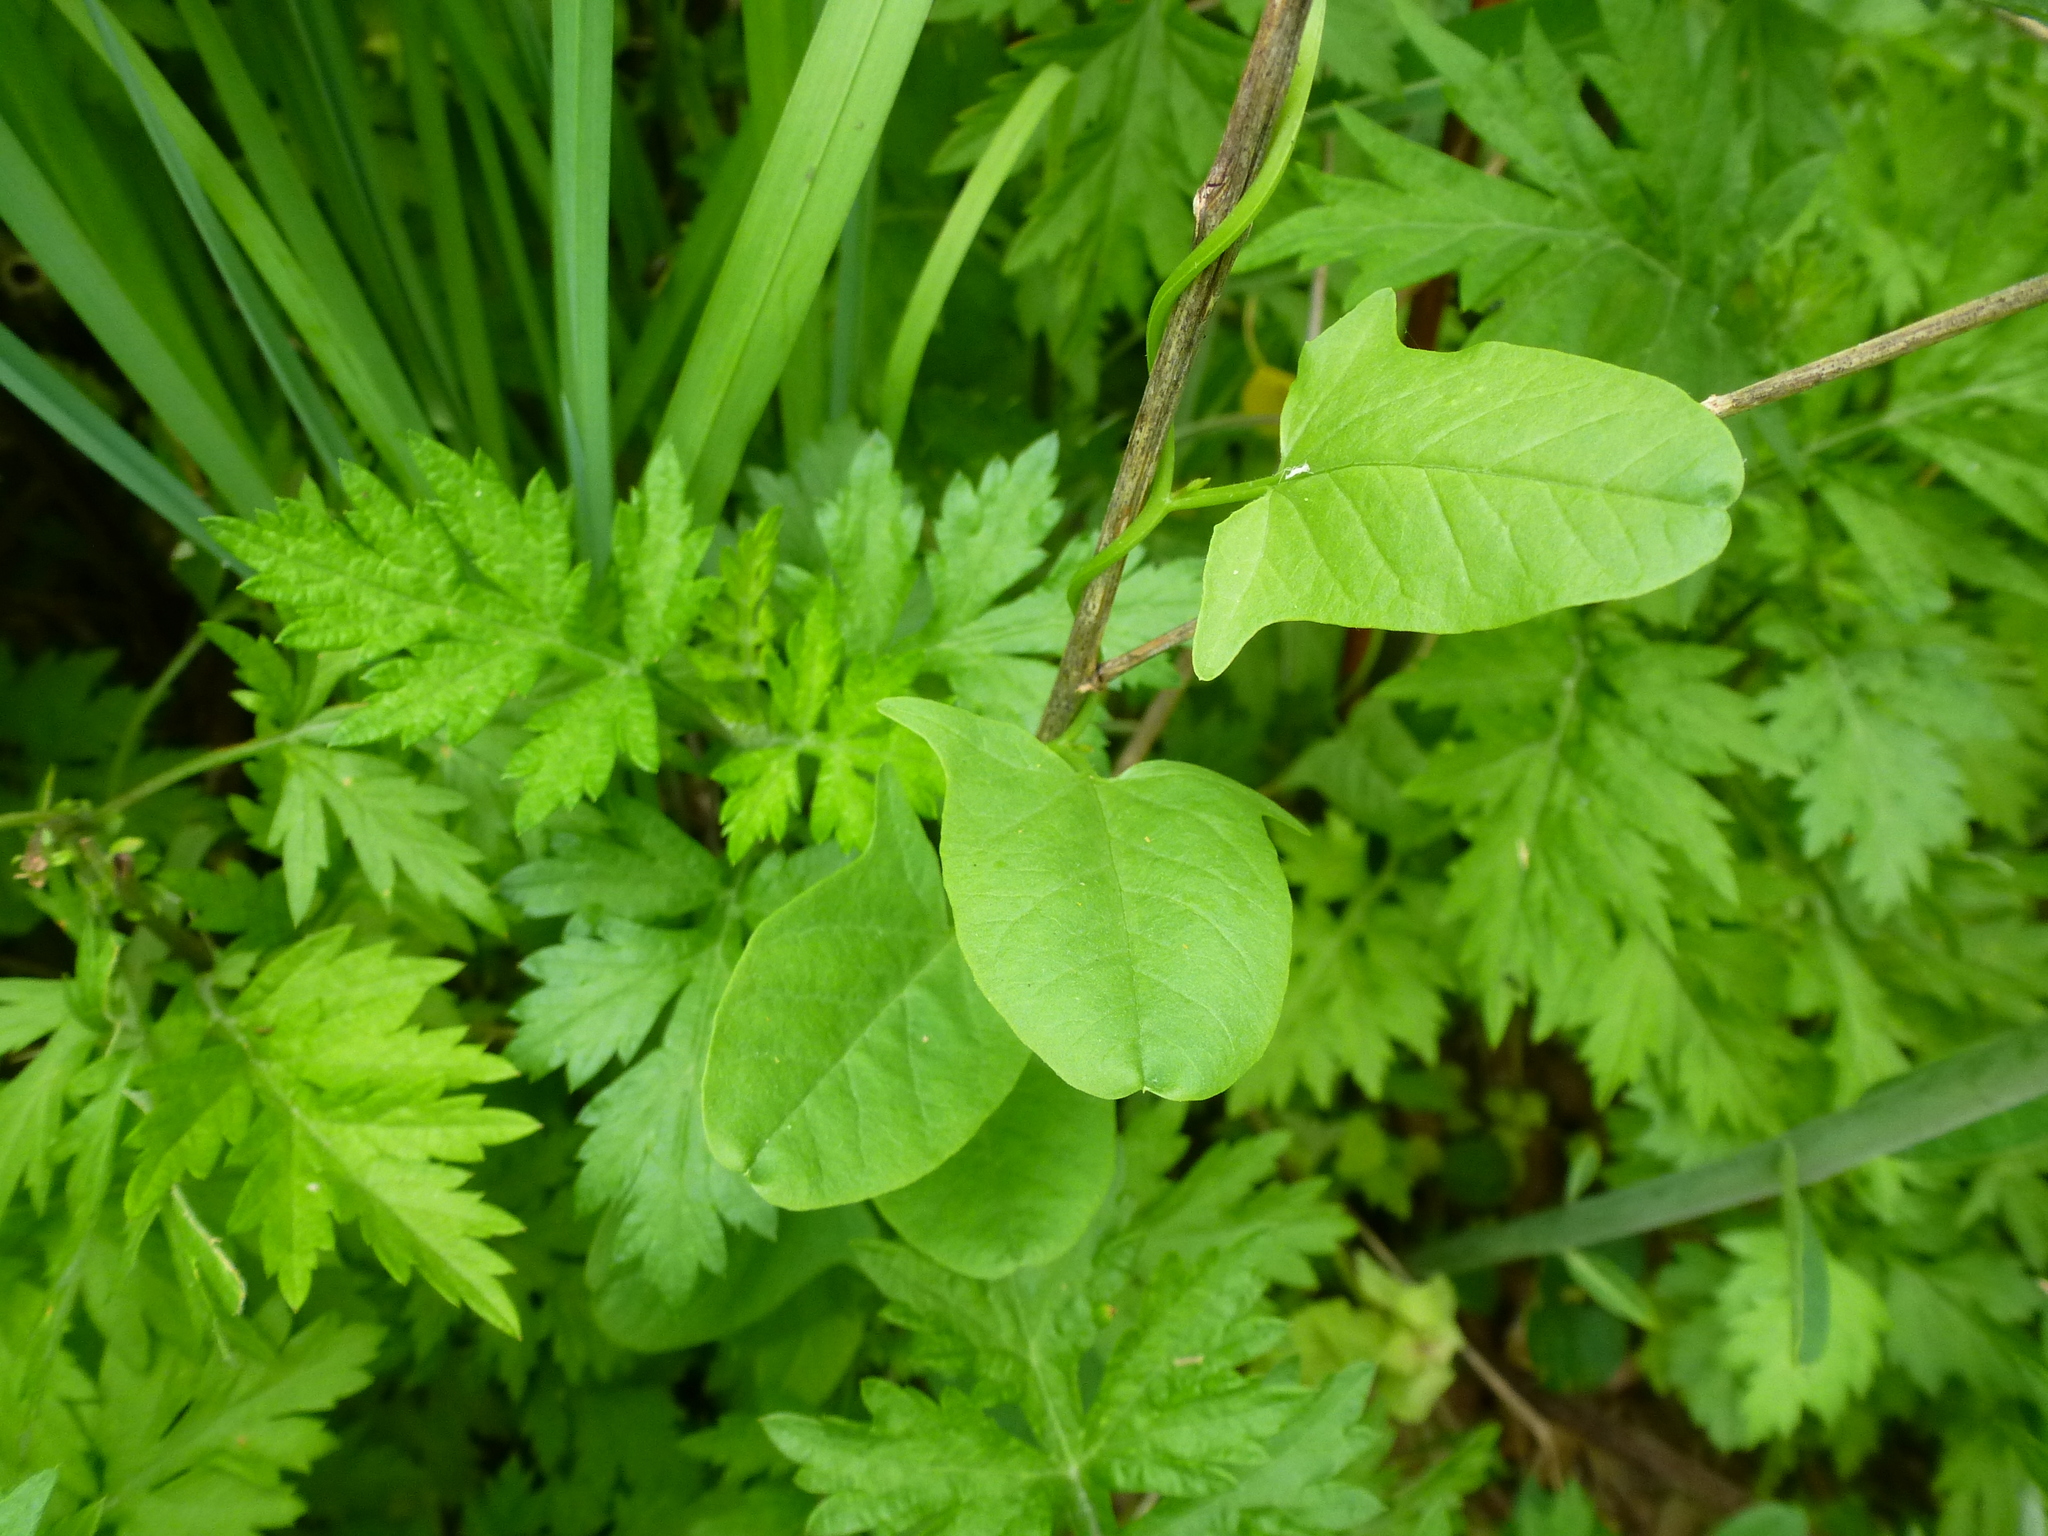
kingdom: Plantae
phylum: Tracheophyta
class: Magnoliopsida
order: Apiales
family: Apiaceae
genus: Pastinaca
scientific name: Pastinaca sativa
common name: Wild parsnip
